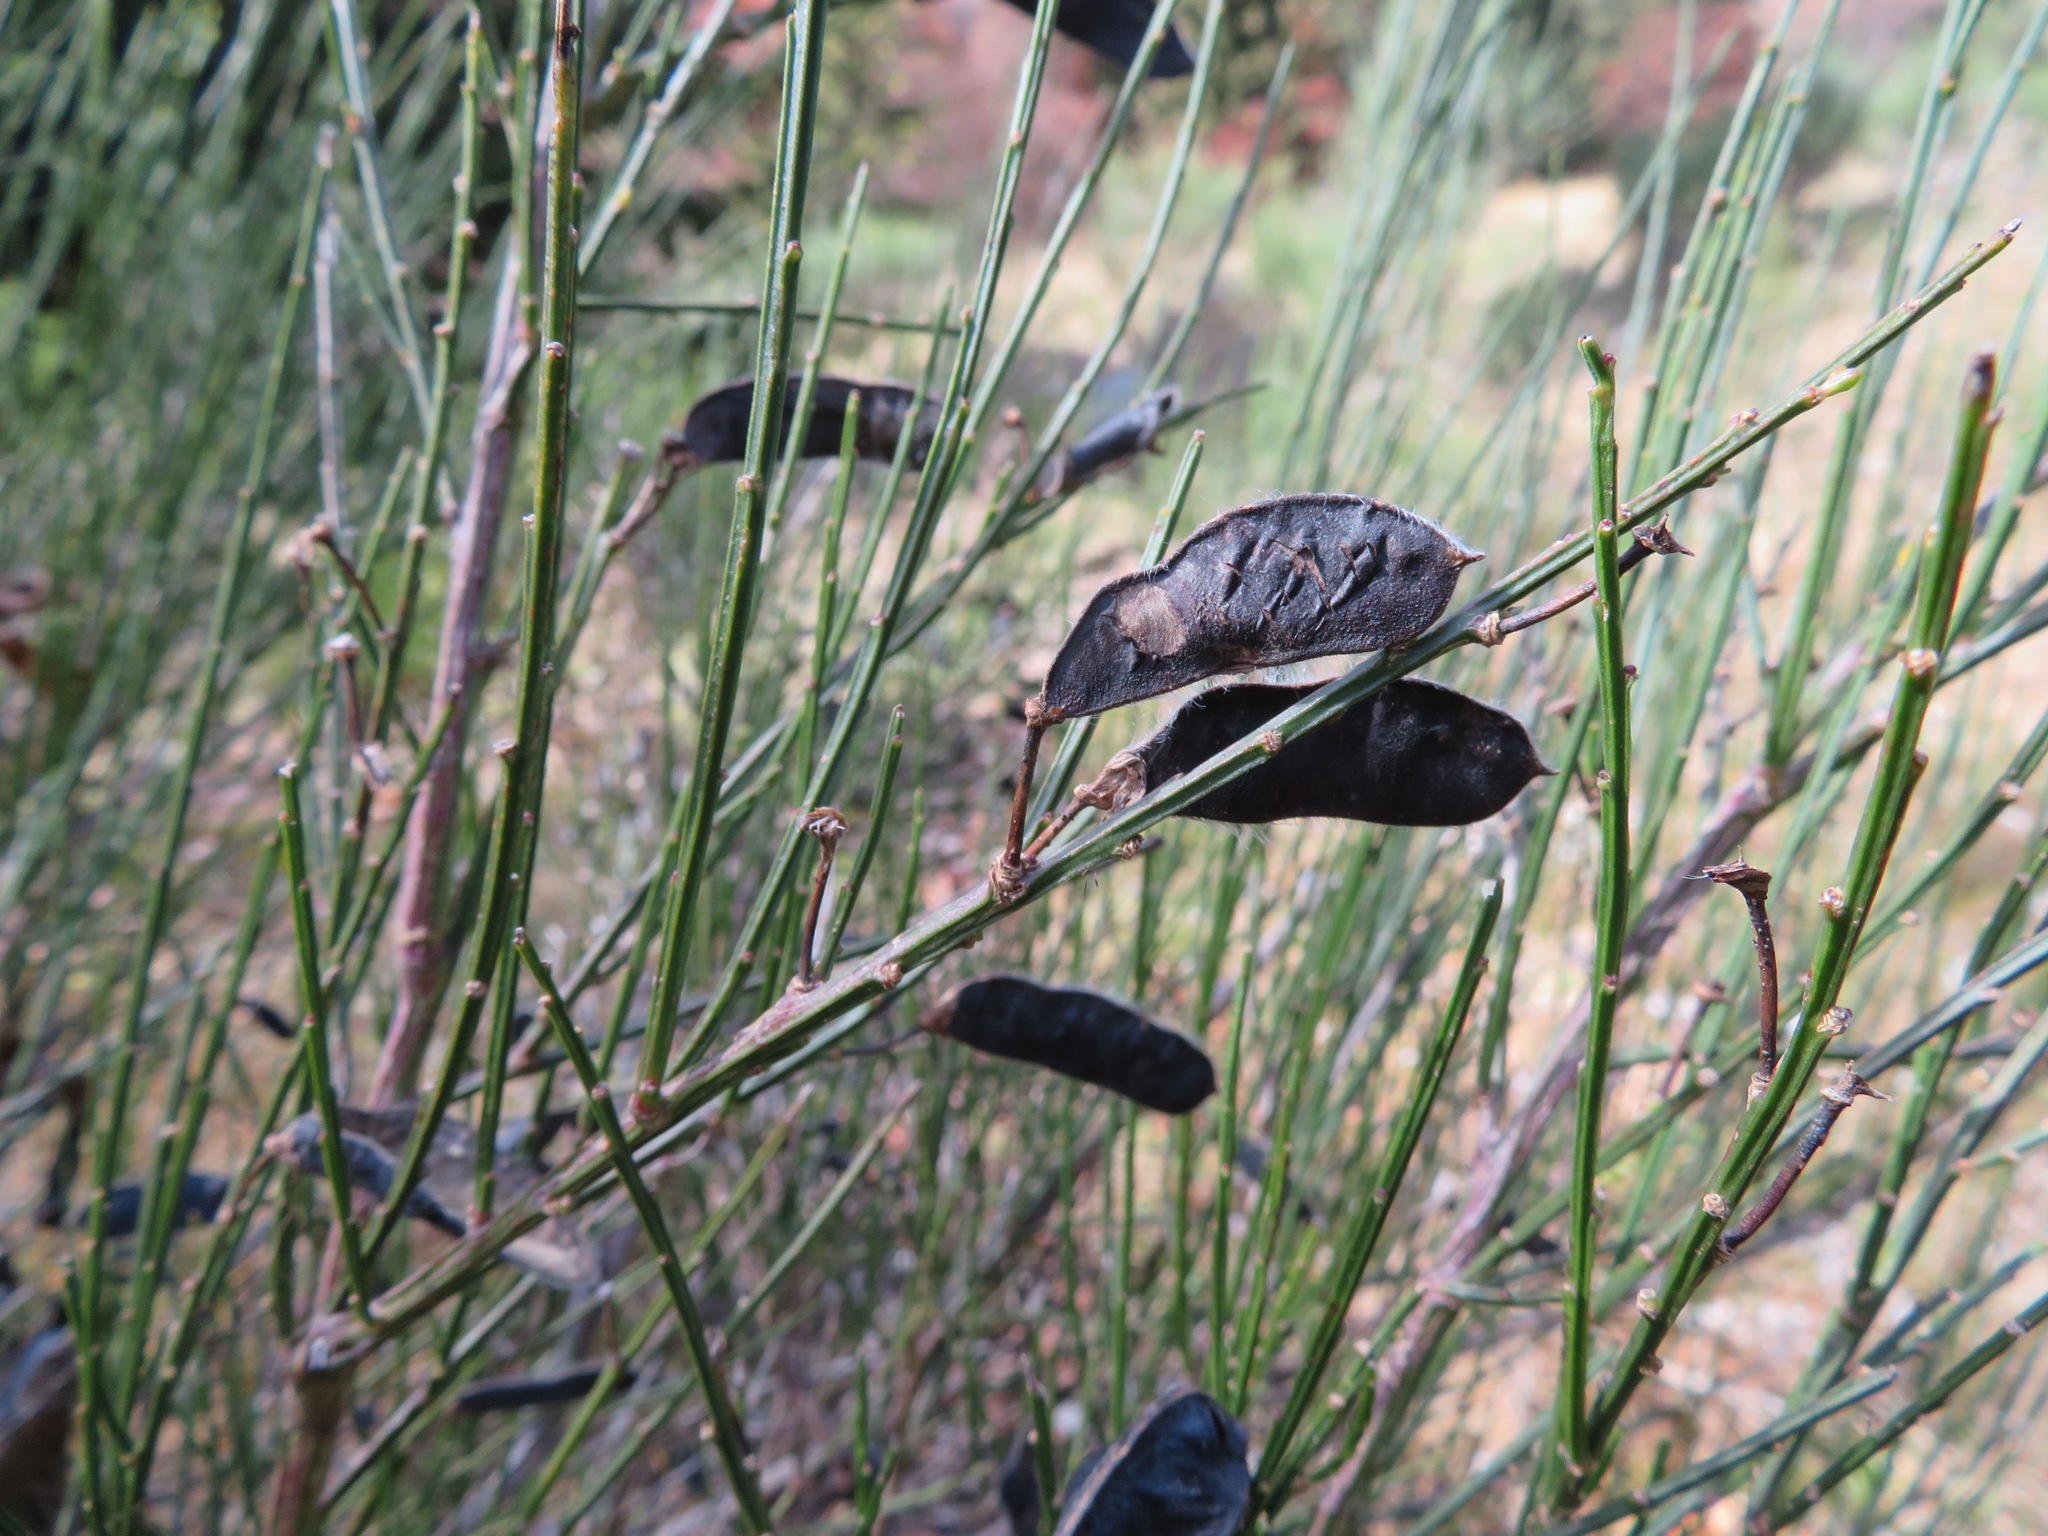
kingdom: Plantae
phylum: Tracheophyta
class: Magnoliopsida
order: Fabales
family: Fabaceae
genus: Cytisus
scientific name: Cytisus scoparius
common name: Scotch broom
